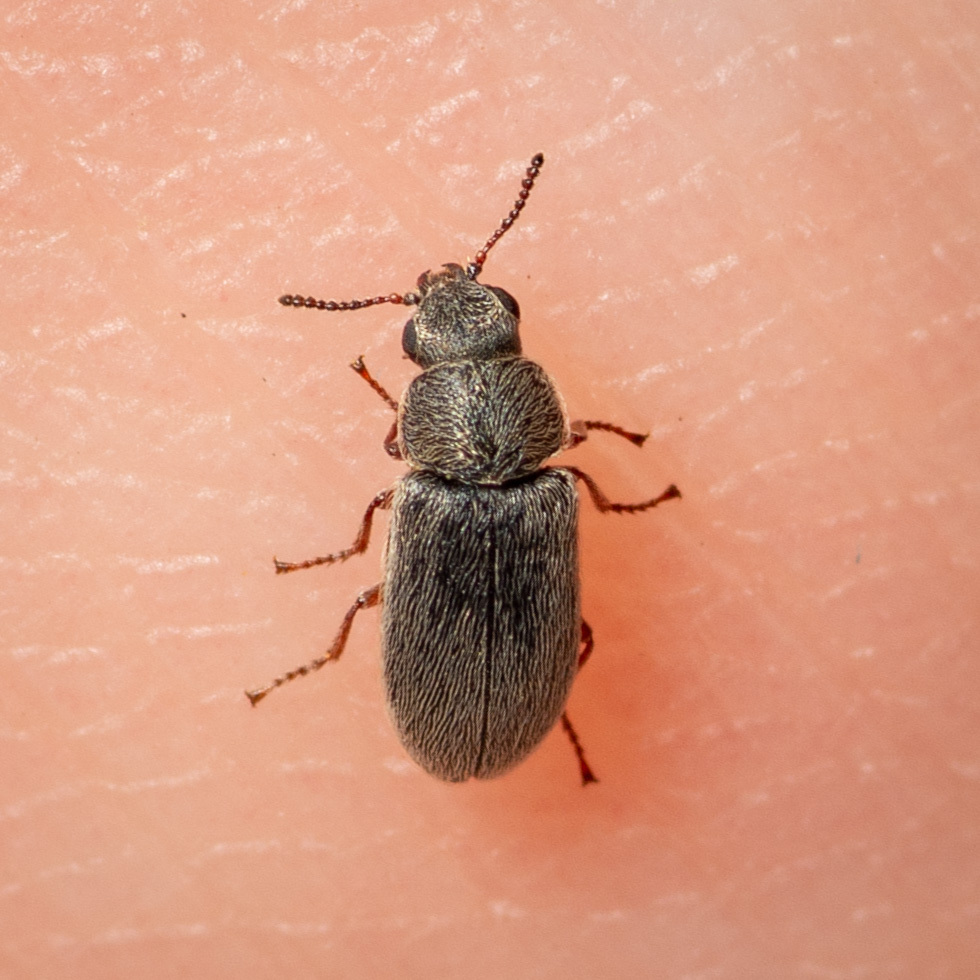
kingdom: Animalia
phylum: Arthropoda
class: Insecta
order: Coleoptera
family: Melyridae
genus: Trichochrous
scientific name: Trichochrous
